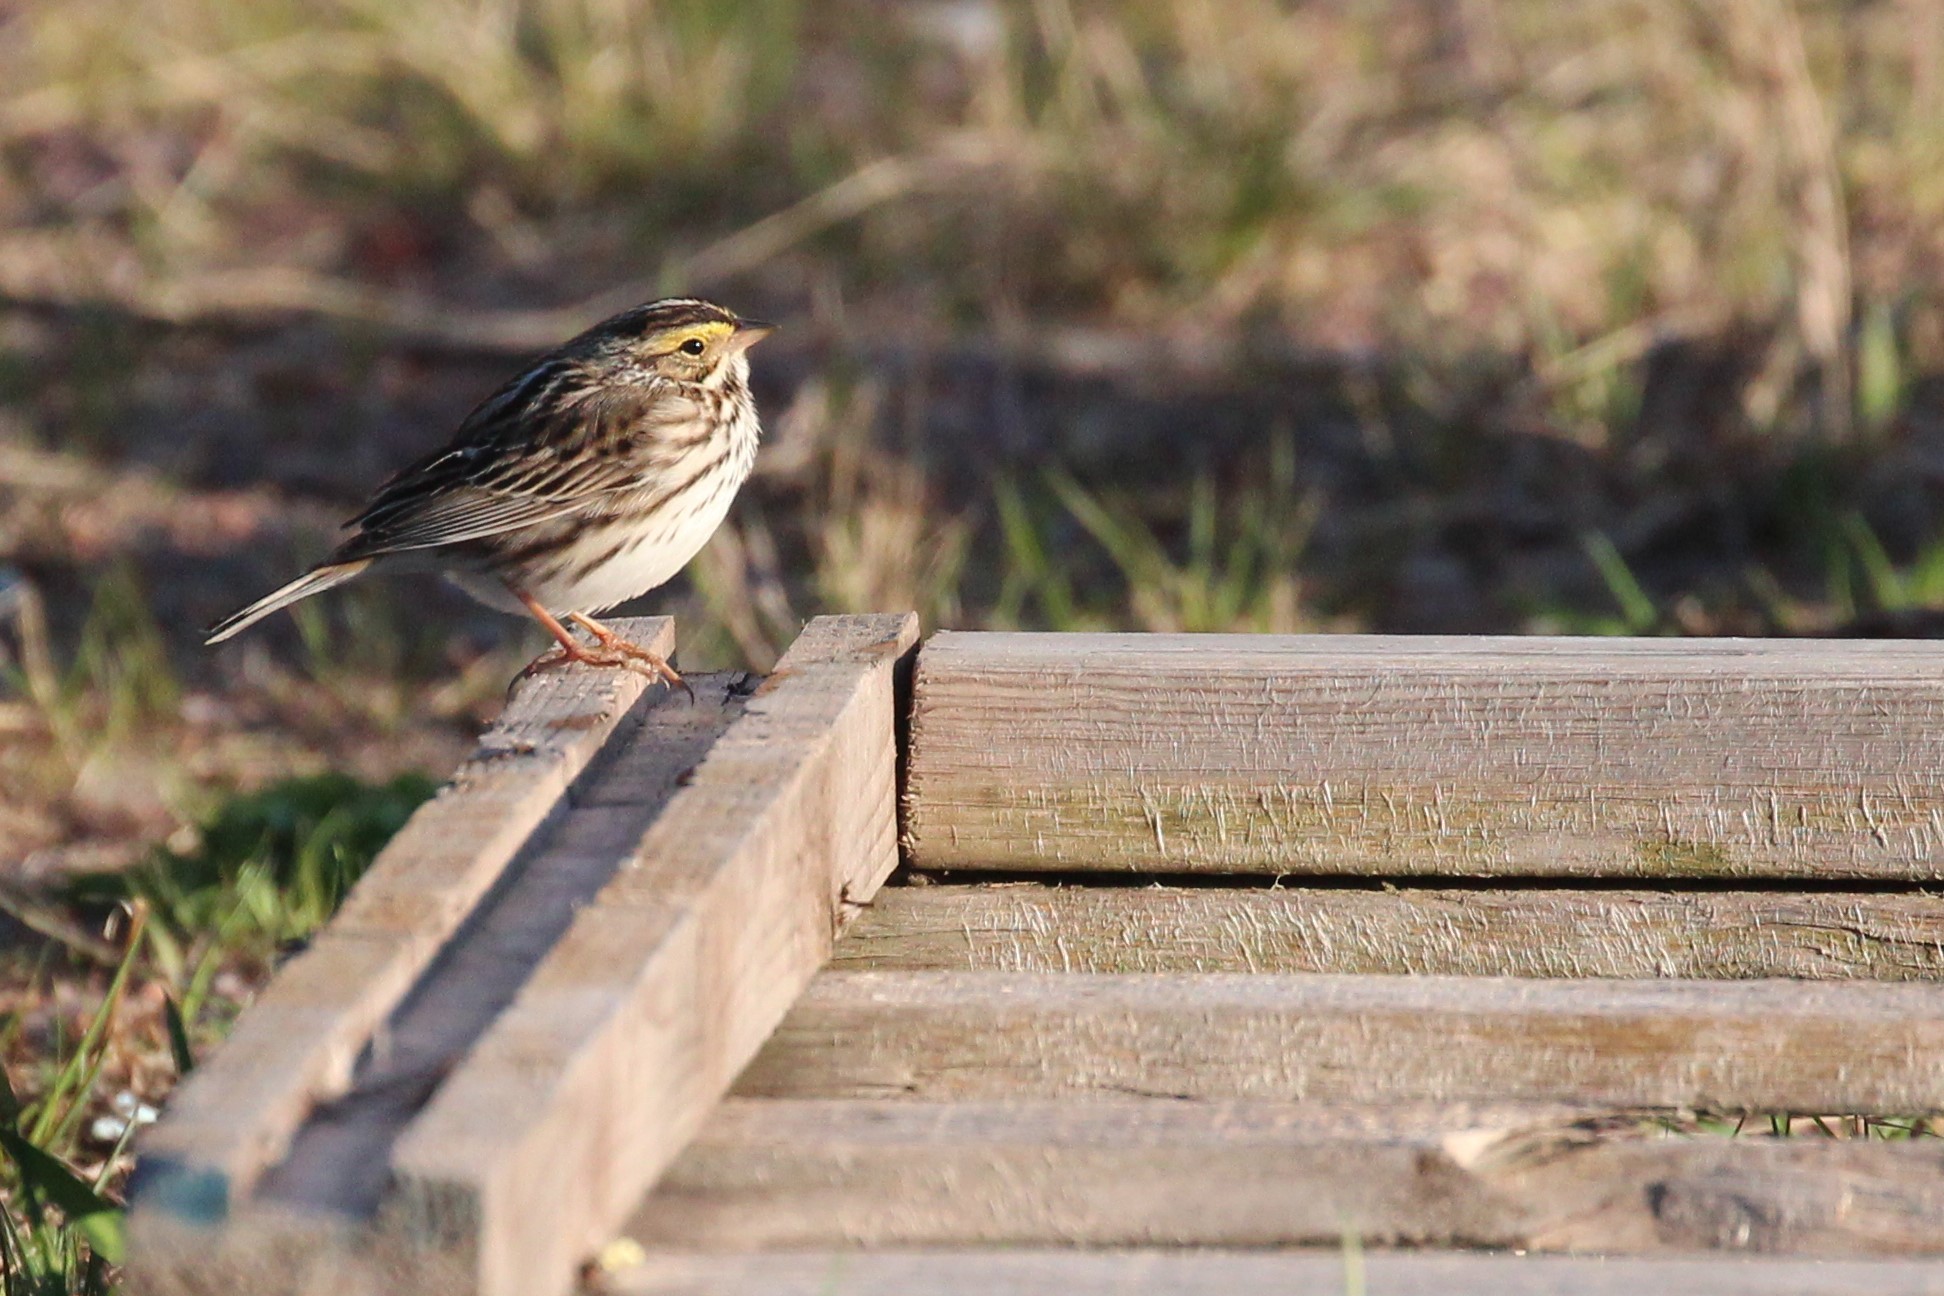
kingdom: Animalia
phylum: Chordata
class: Aves
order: Passeriformes
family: Passerellidae
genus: Passerculus
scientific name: Passerculus sandwichensis
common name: Savannah sparrow
